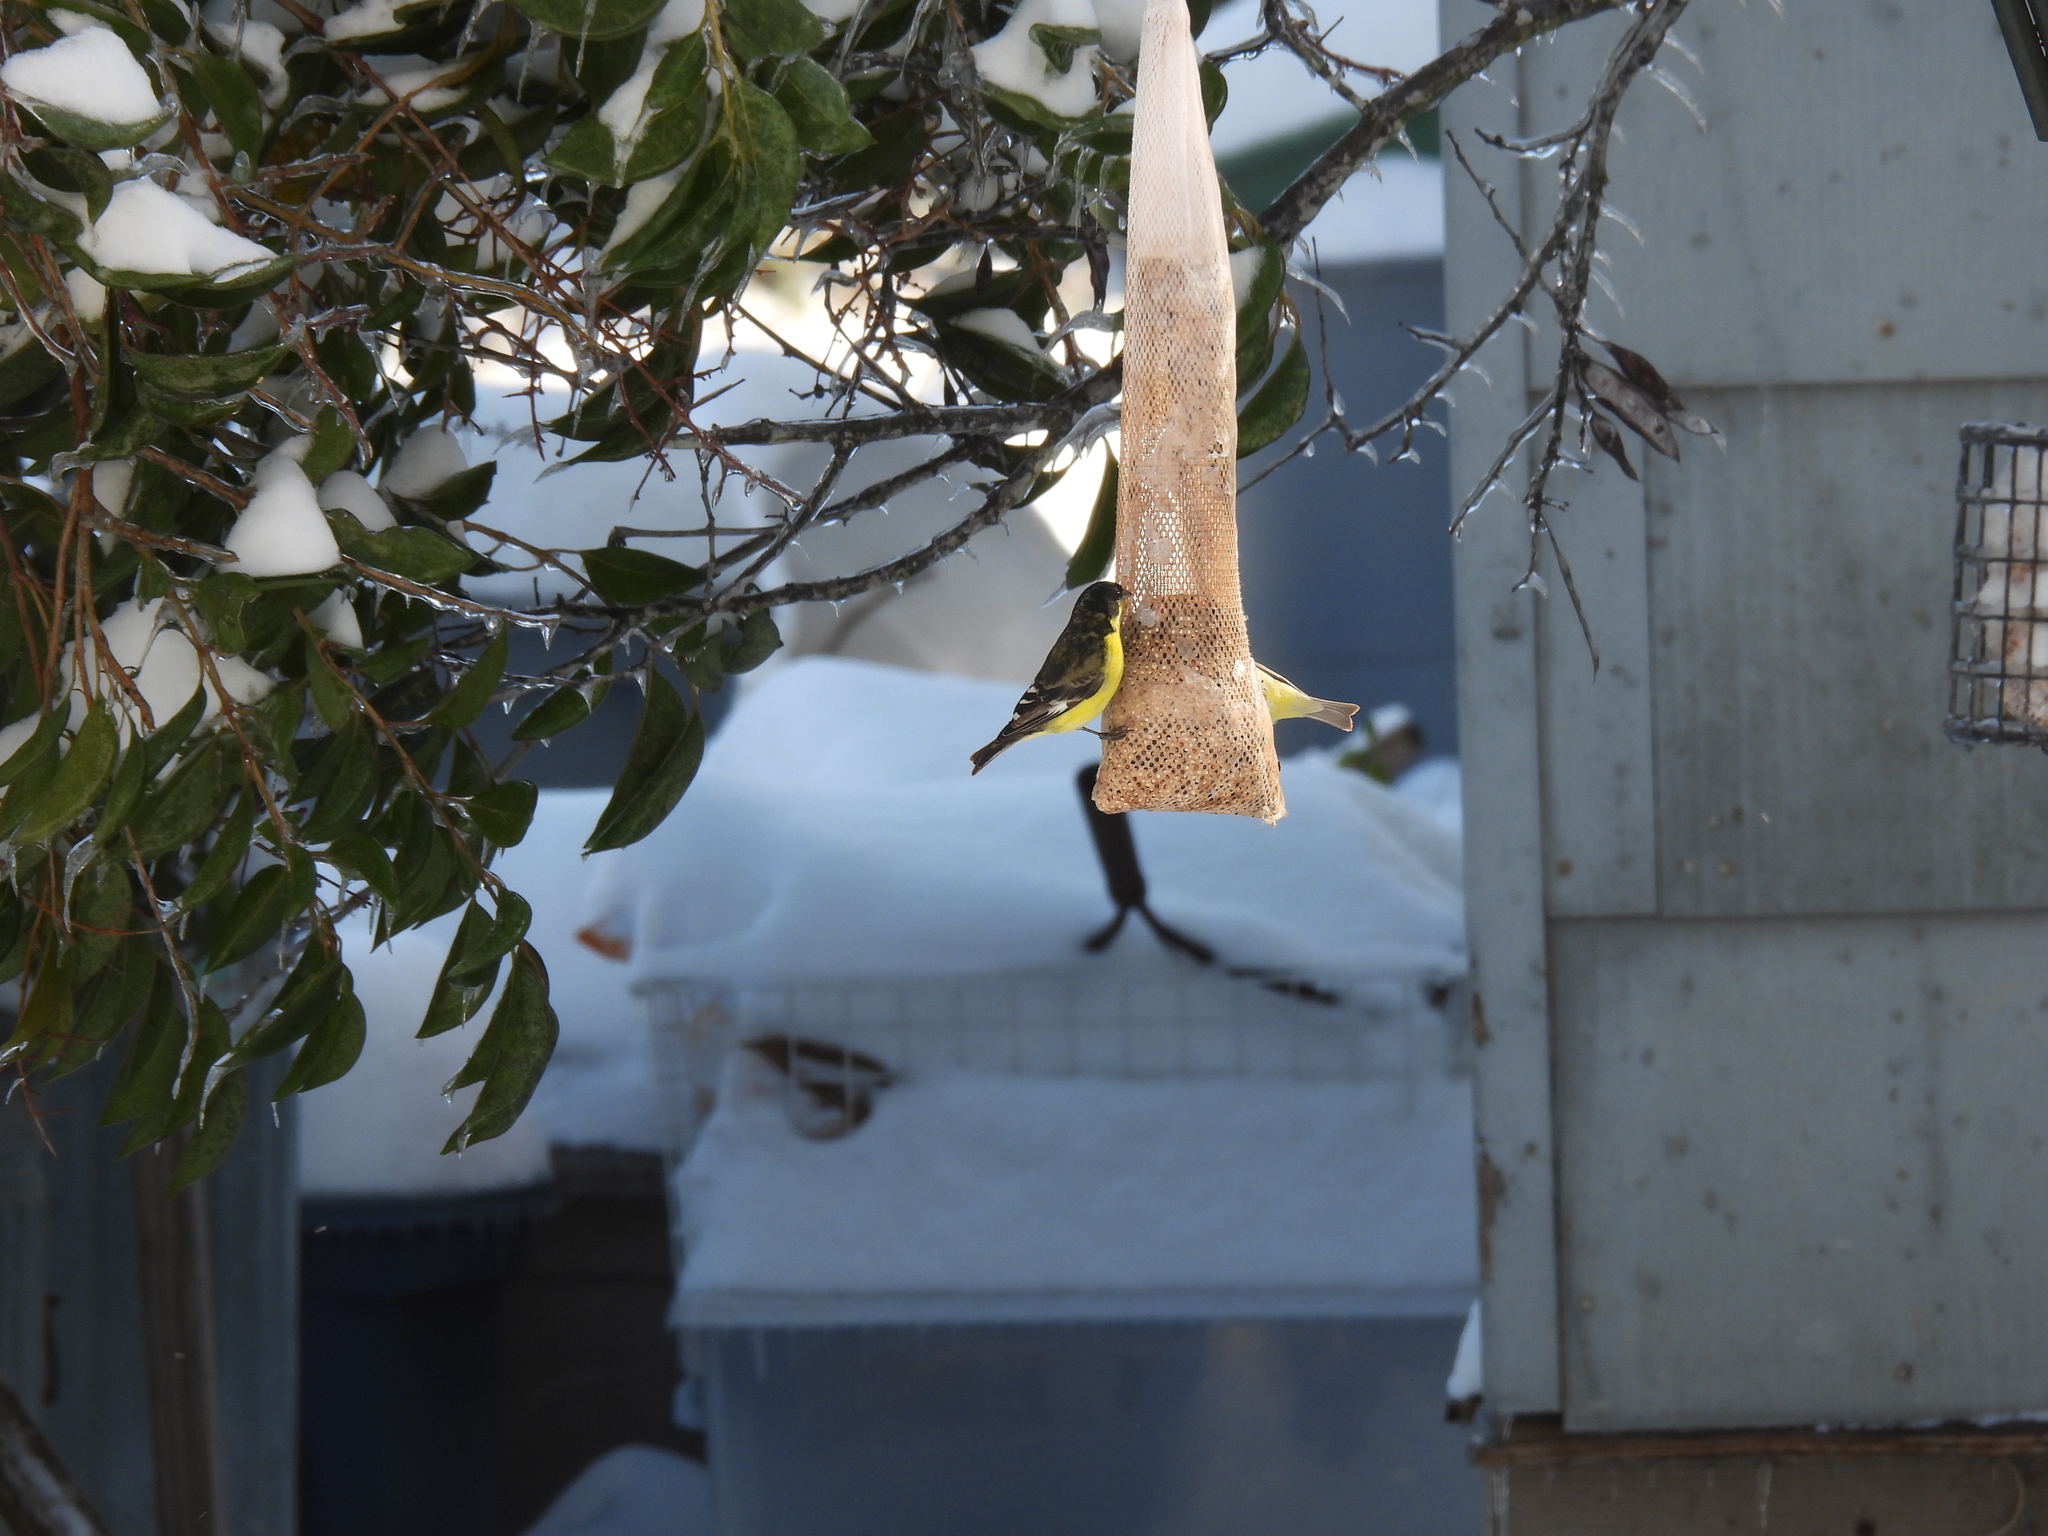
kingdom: Animalia
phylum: Chordata
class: Aves
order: Passeriformes
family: Fringillidae
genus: Spinus
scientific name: Spinus psaltria
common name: Lesser goldfinch
